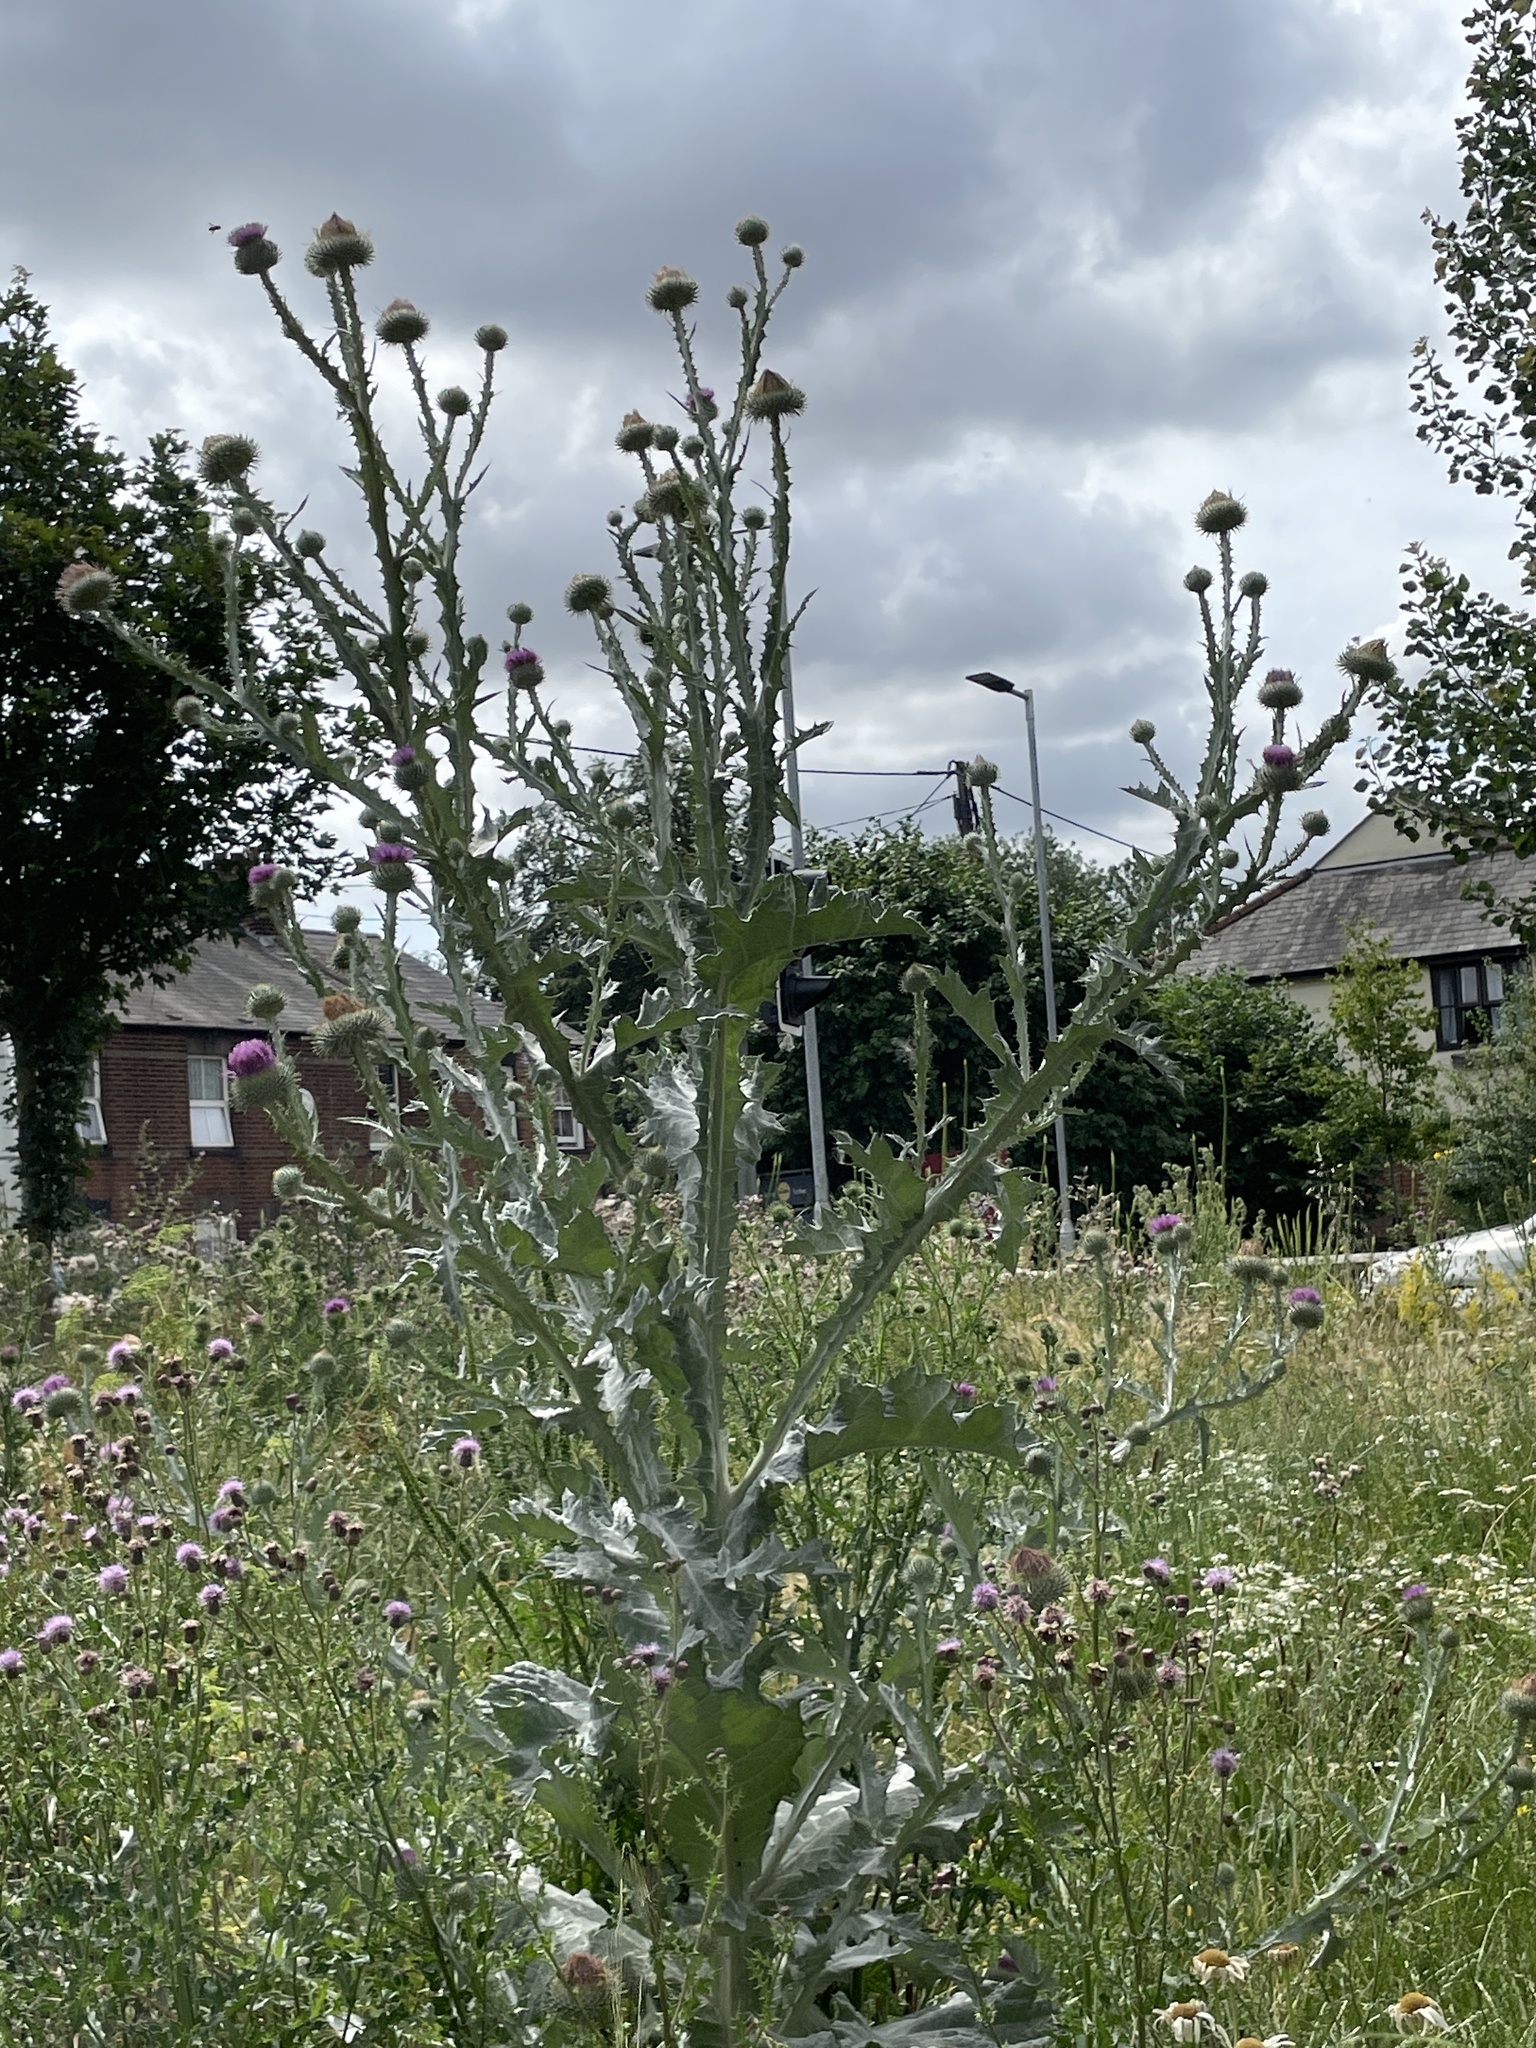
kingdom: Plantae
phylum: Tracheophyta
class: Magnoliopsida
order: Asterales
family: Asteraceae
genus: Onopordum
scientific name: Onopordum acanthium
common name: Scotch thistle
